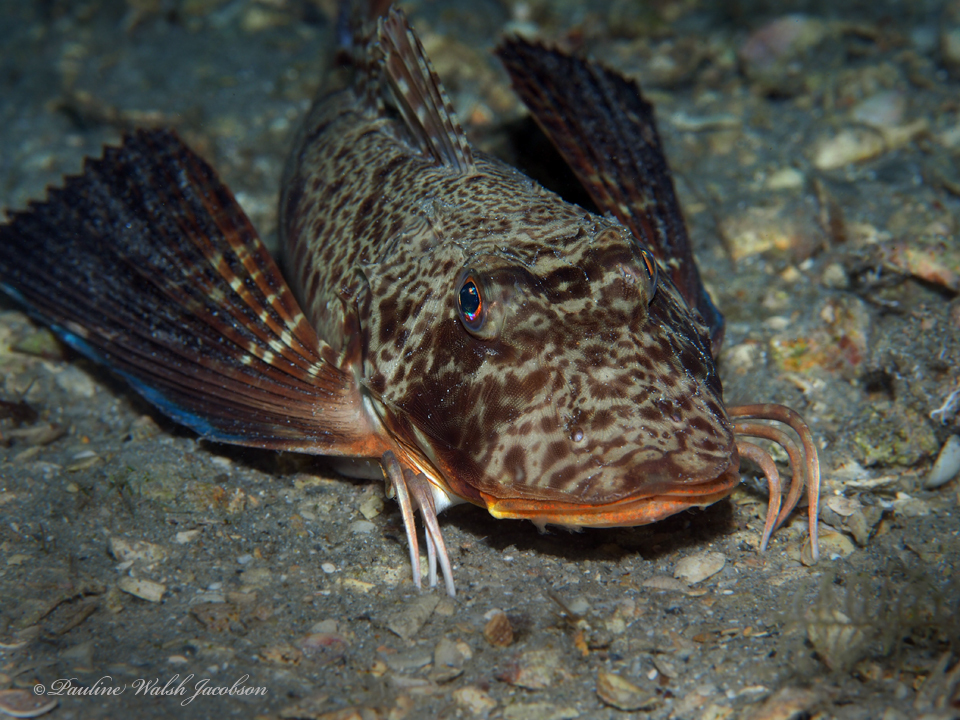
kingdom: Animalia
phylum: Chordata
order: Scorpaeniformes
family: Triglidae
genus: Prionotus
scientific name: Prionotus rubio
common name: Blackwing searobin
